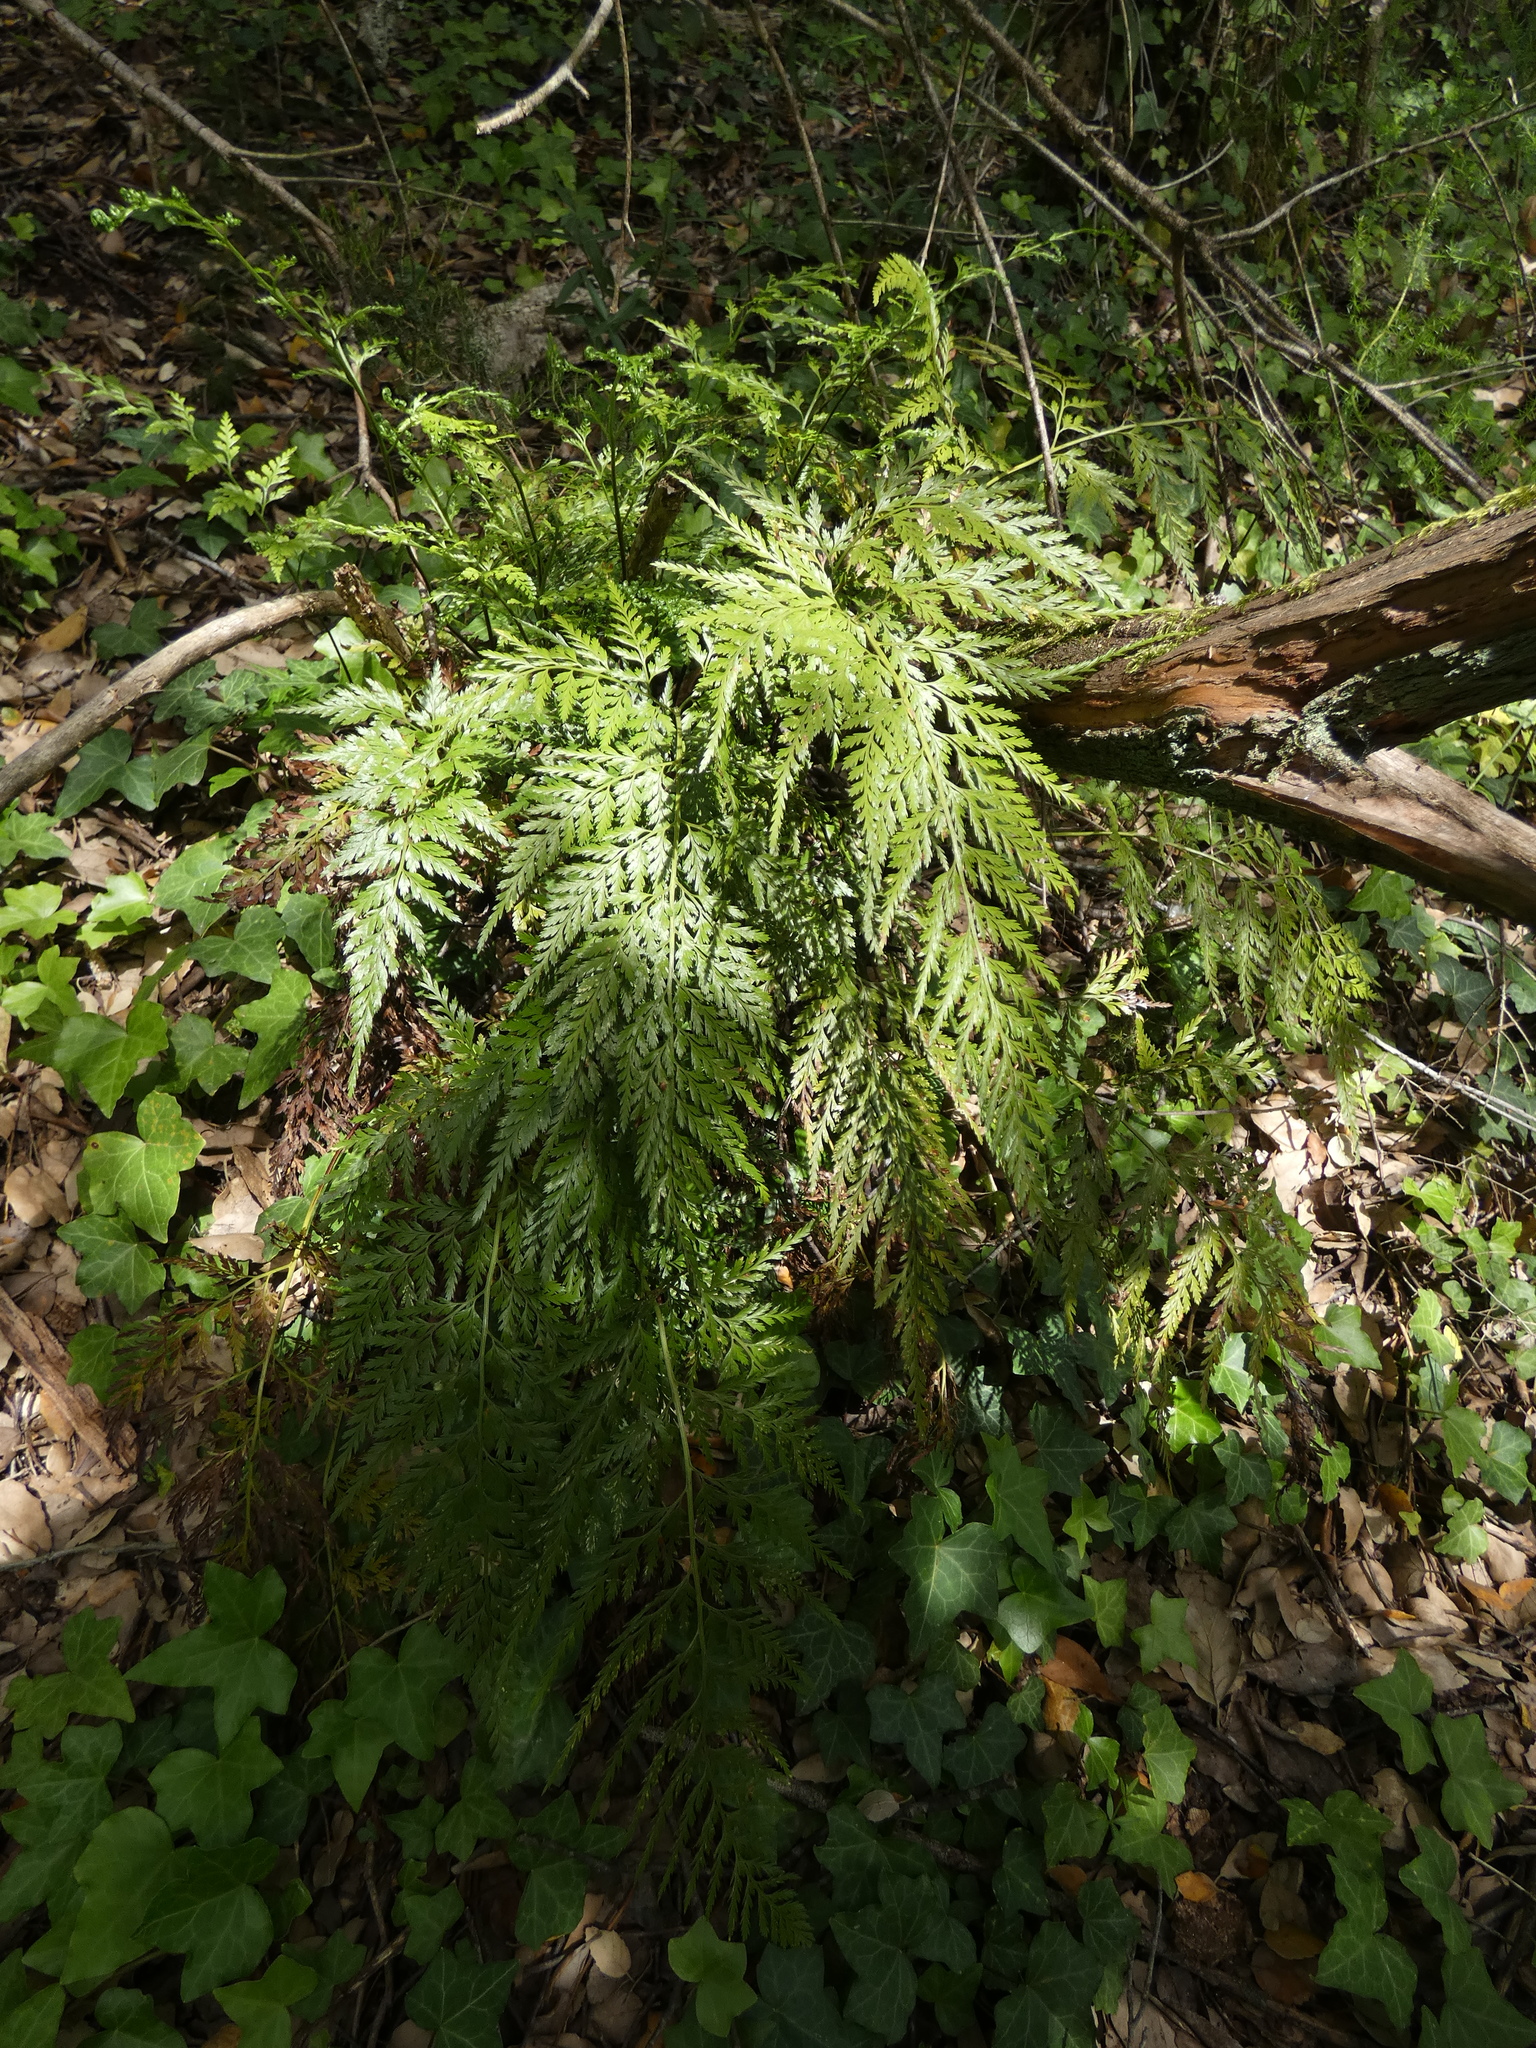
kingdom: Plantae
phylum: Tracheophyta
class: Polypodiopsida
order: Polypodiales
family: Aspleniaceae
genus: Asplenium
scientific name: Asplenium onopteris
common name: Irish spleenwort
